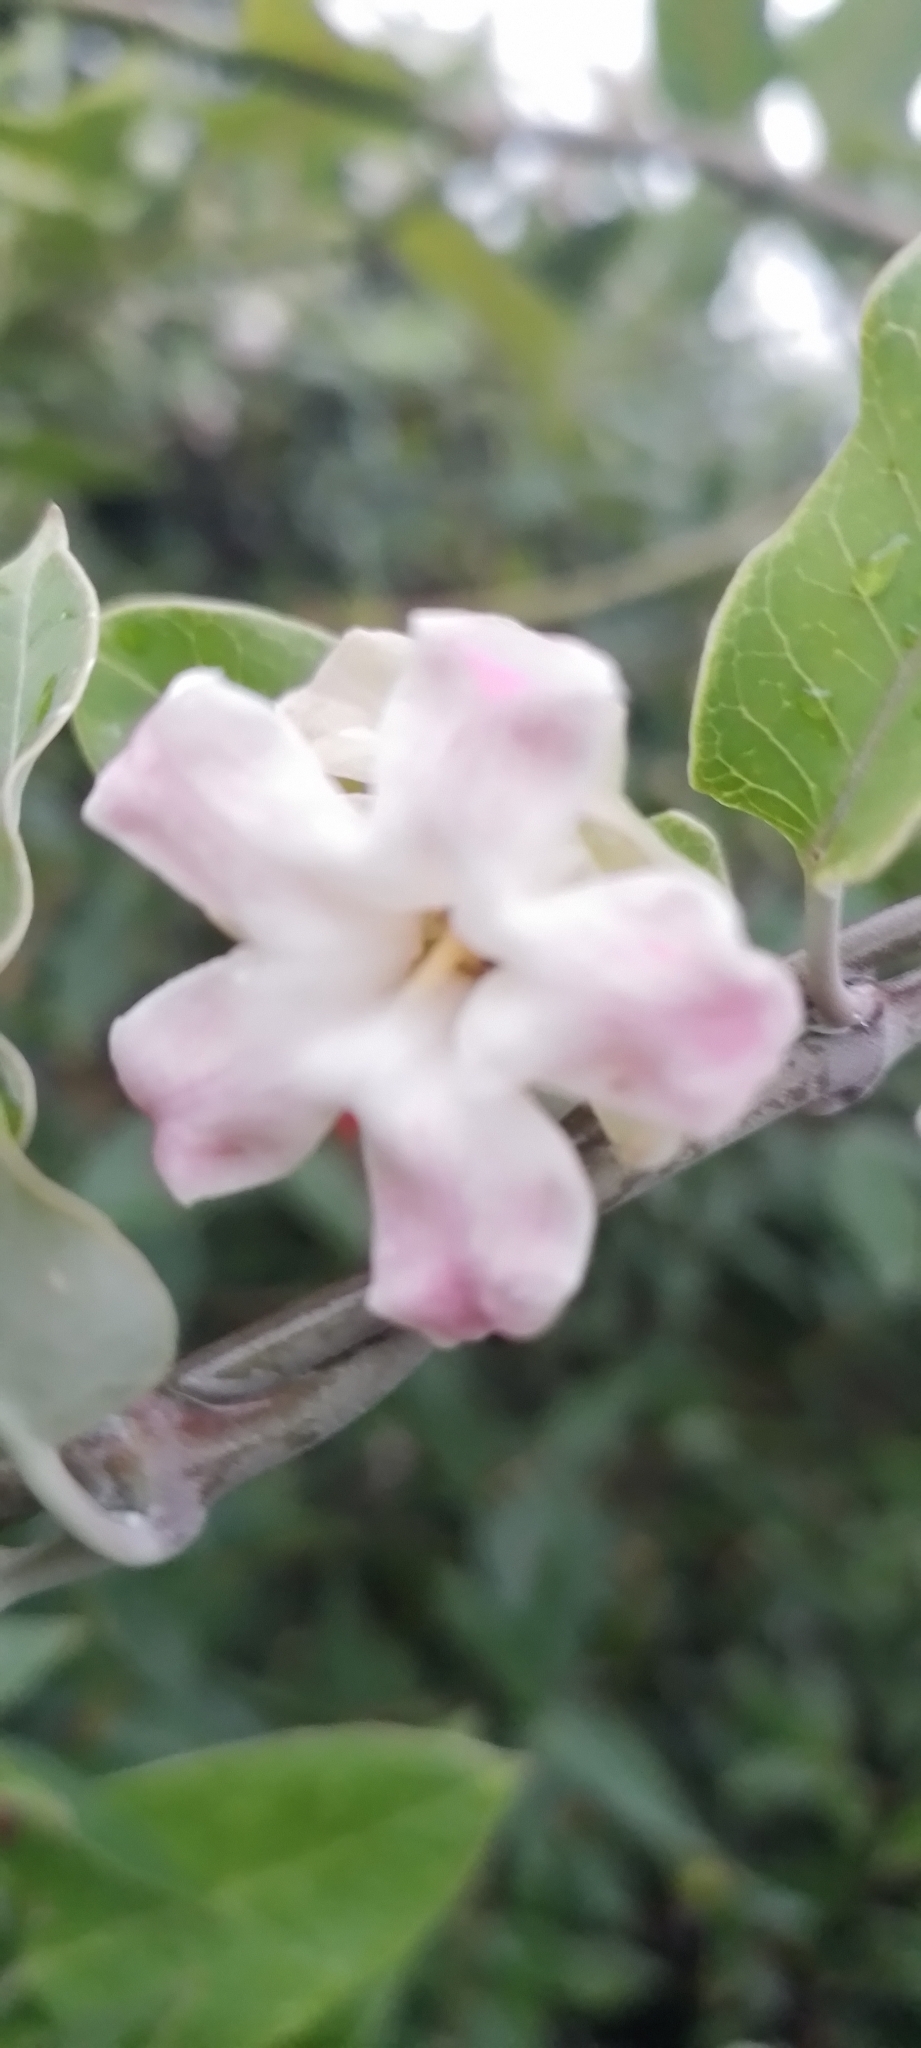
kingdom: Plantae
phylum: Tracheophyta
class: Magnoliopsida
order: Gentianales
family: Apocynaceae
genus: Araujia
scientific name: Araujia sericifera
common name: White bladderflower
